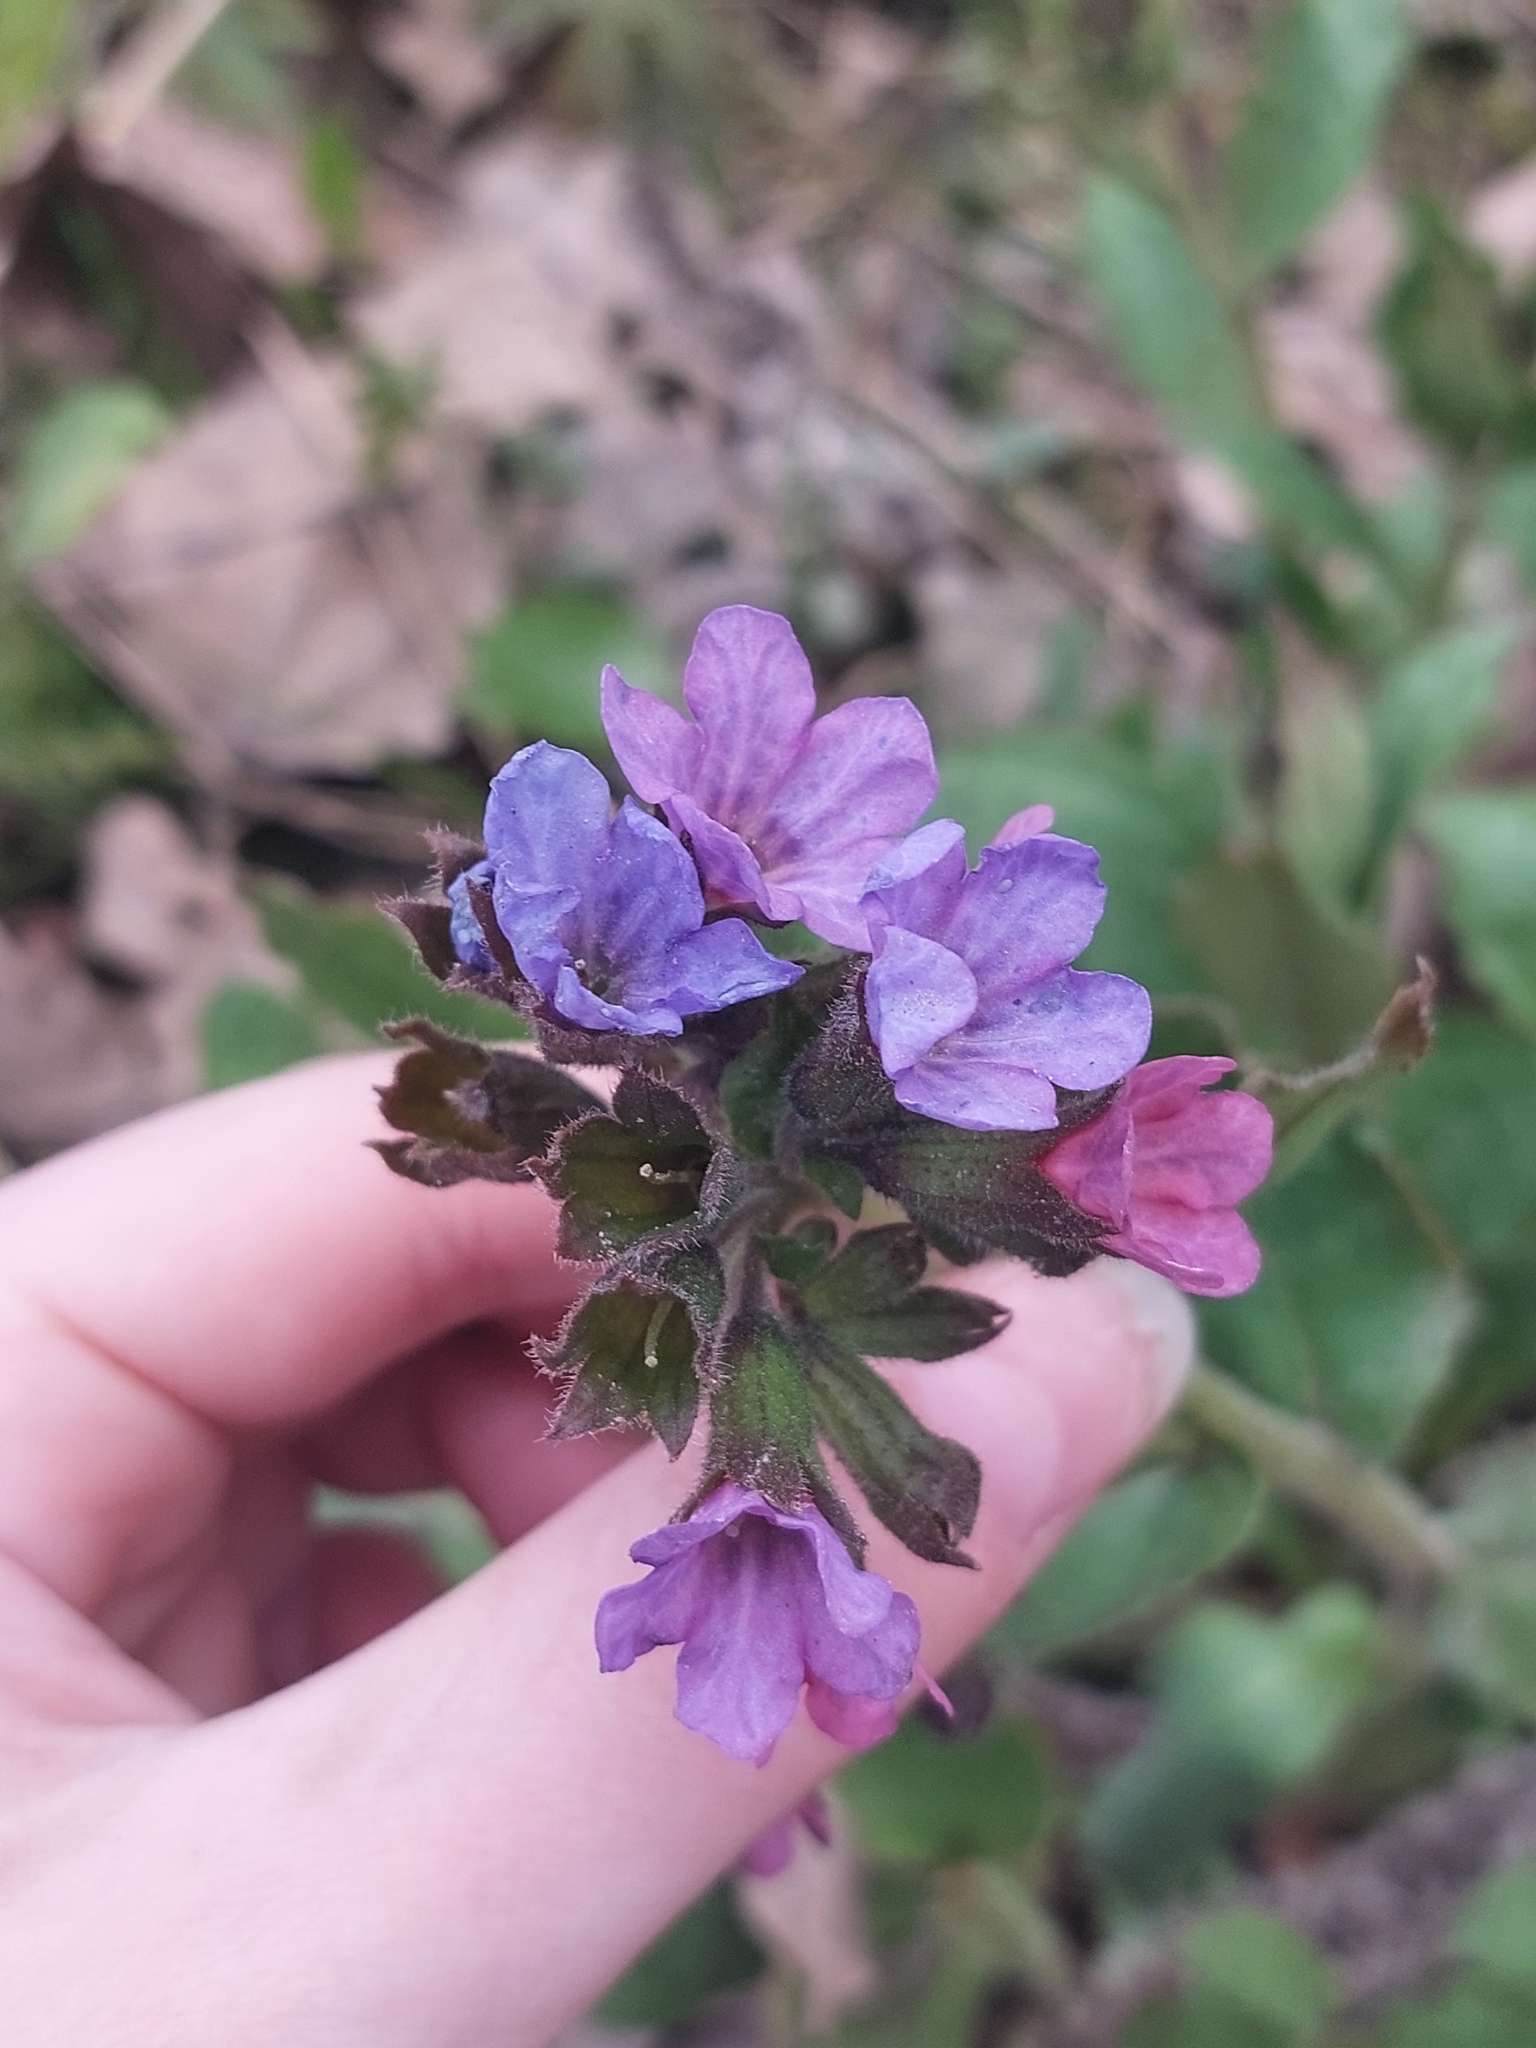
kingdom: Plantae
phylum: Tracheophyta
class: Magnoliopsida
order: Boraginales
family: Boraginaceae
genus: Pulmonaria
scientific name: Pulmonaria obscura
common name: Suffolk lungwort
